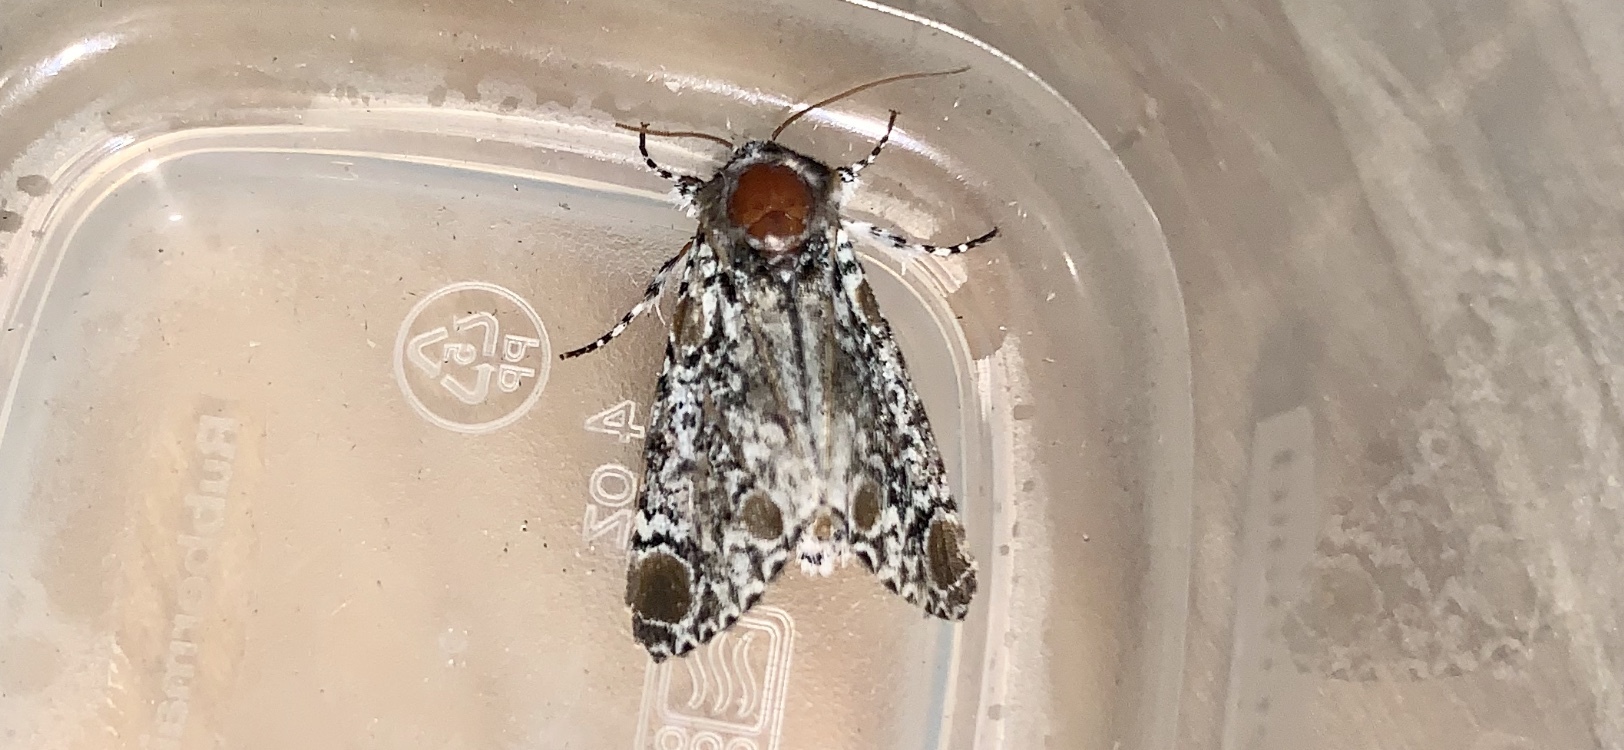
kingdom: Animalia
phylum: Arthropoda
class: Insecta
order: Lepidoptera
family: Noctuidae
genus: Harrisimemna
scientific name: Harrisimemna trisignata
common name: Harris threespot
